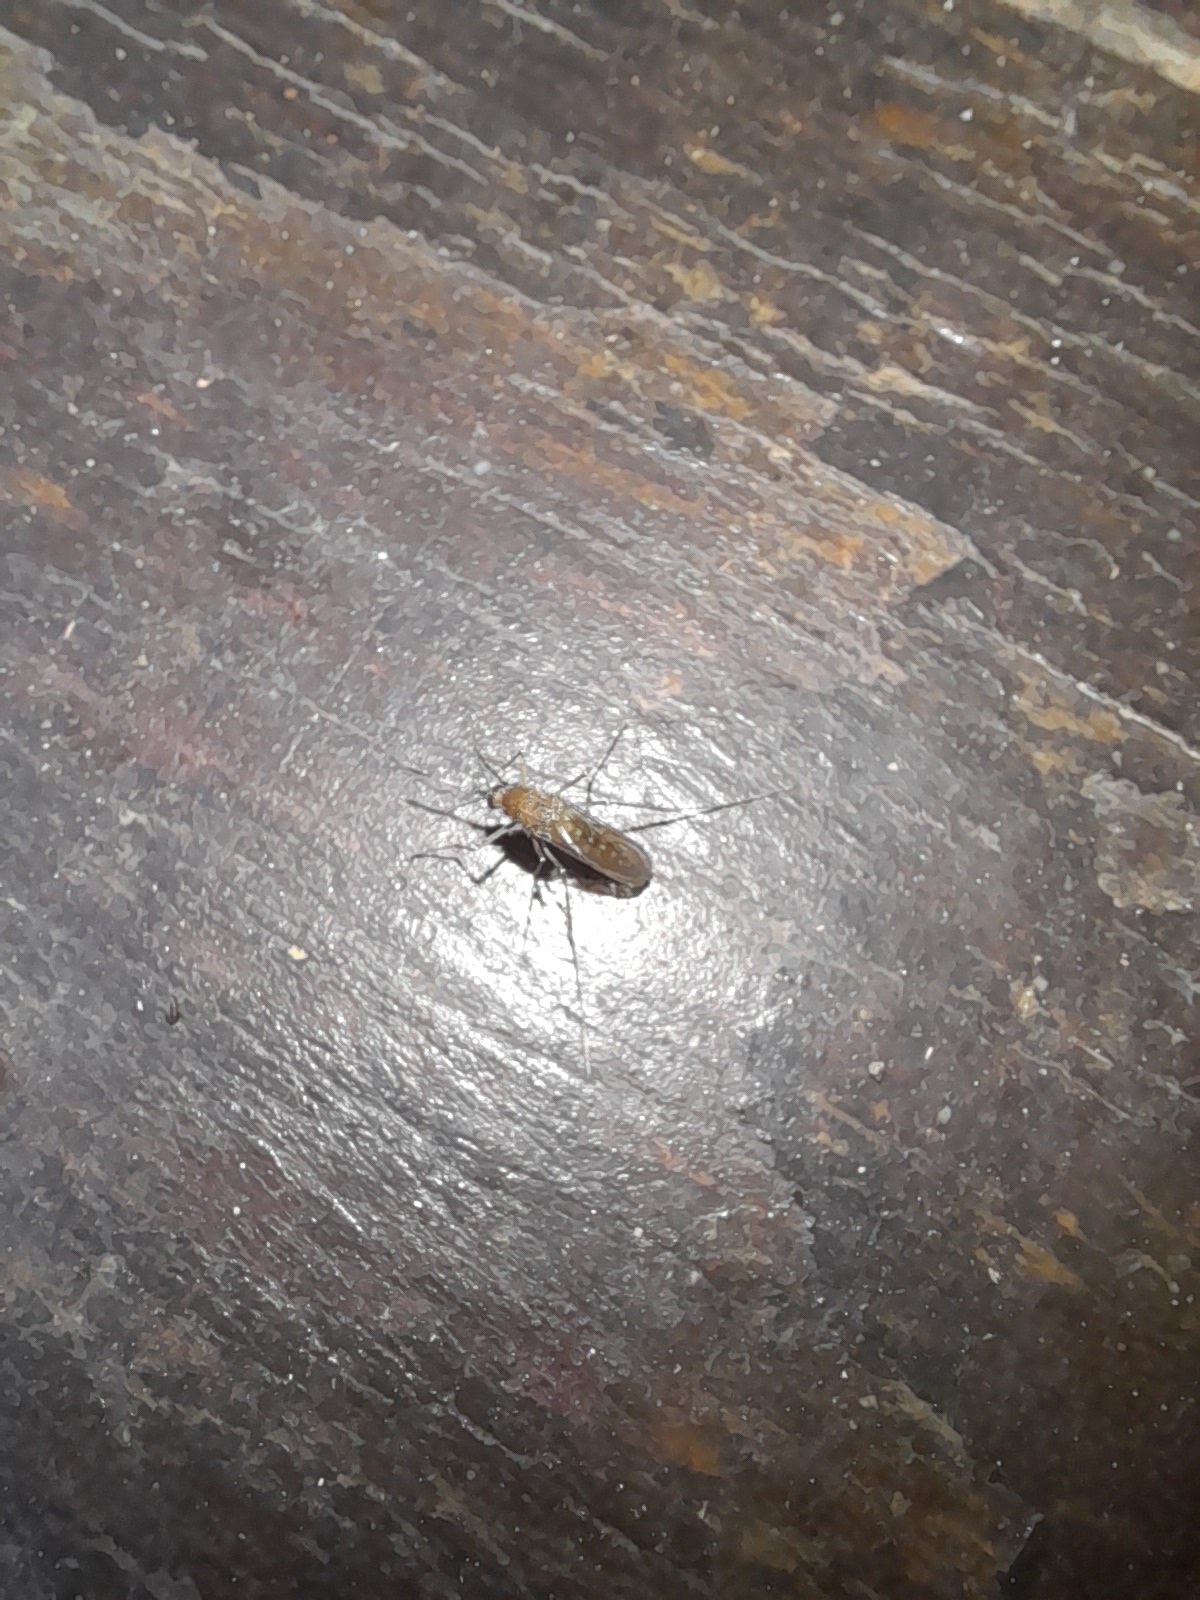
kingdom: Animalia
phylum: Arthropoda
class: Insecta
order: Diptera
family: Culicidae
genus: Aedes
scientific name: Aedes caspius
